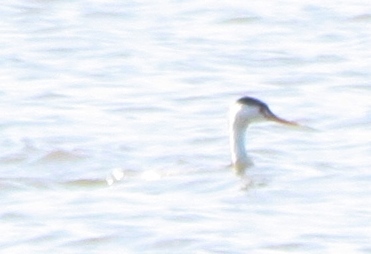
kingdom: Animalia
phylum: Chordata
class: Aves
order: Podicipediformes
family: Podicipedidae
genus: Aechmophorus
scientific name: Aechmophorus clarkii
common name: Clark's grebe
